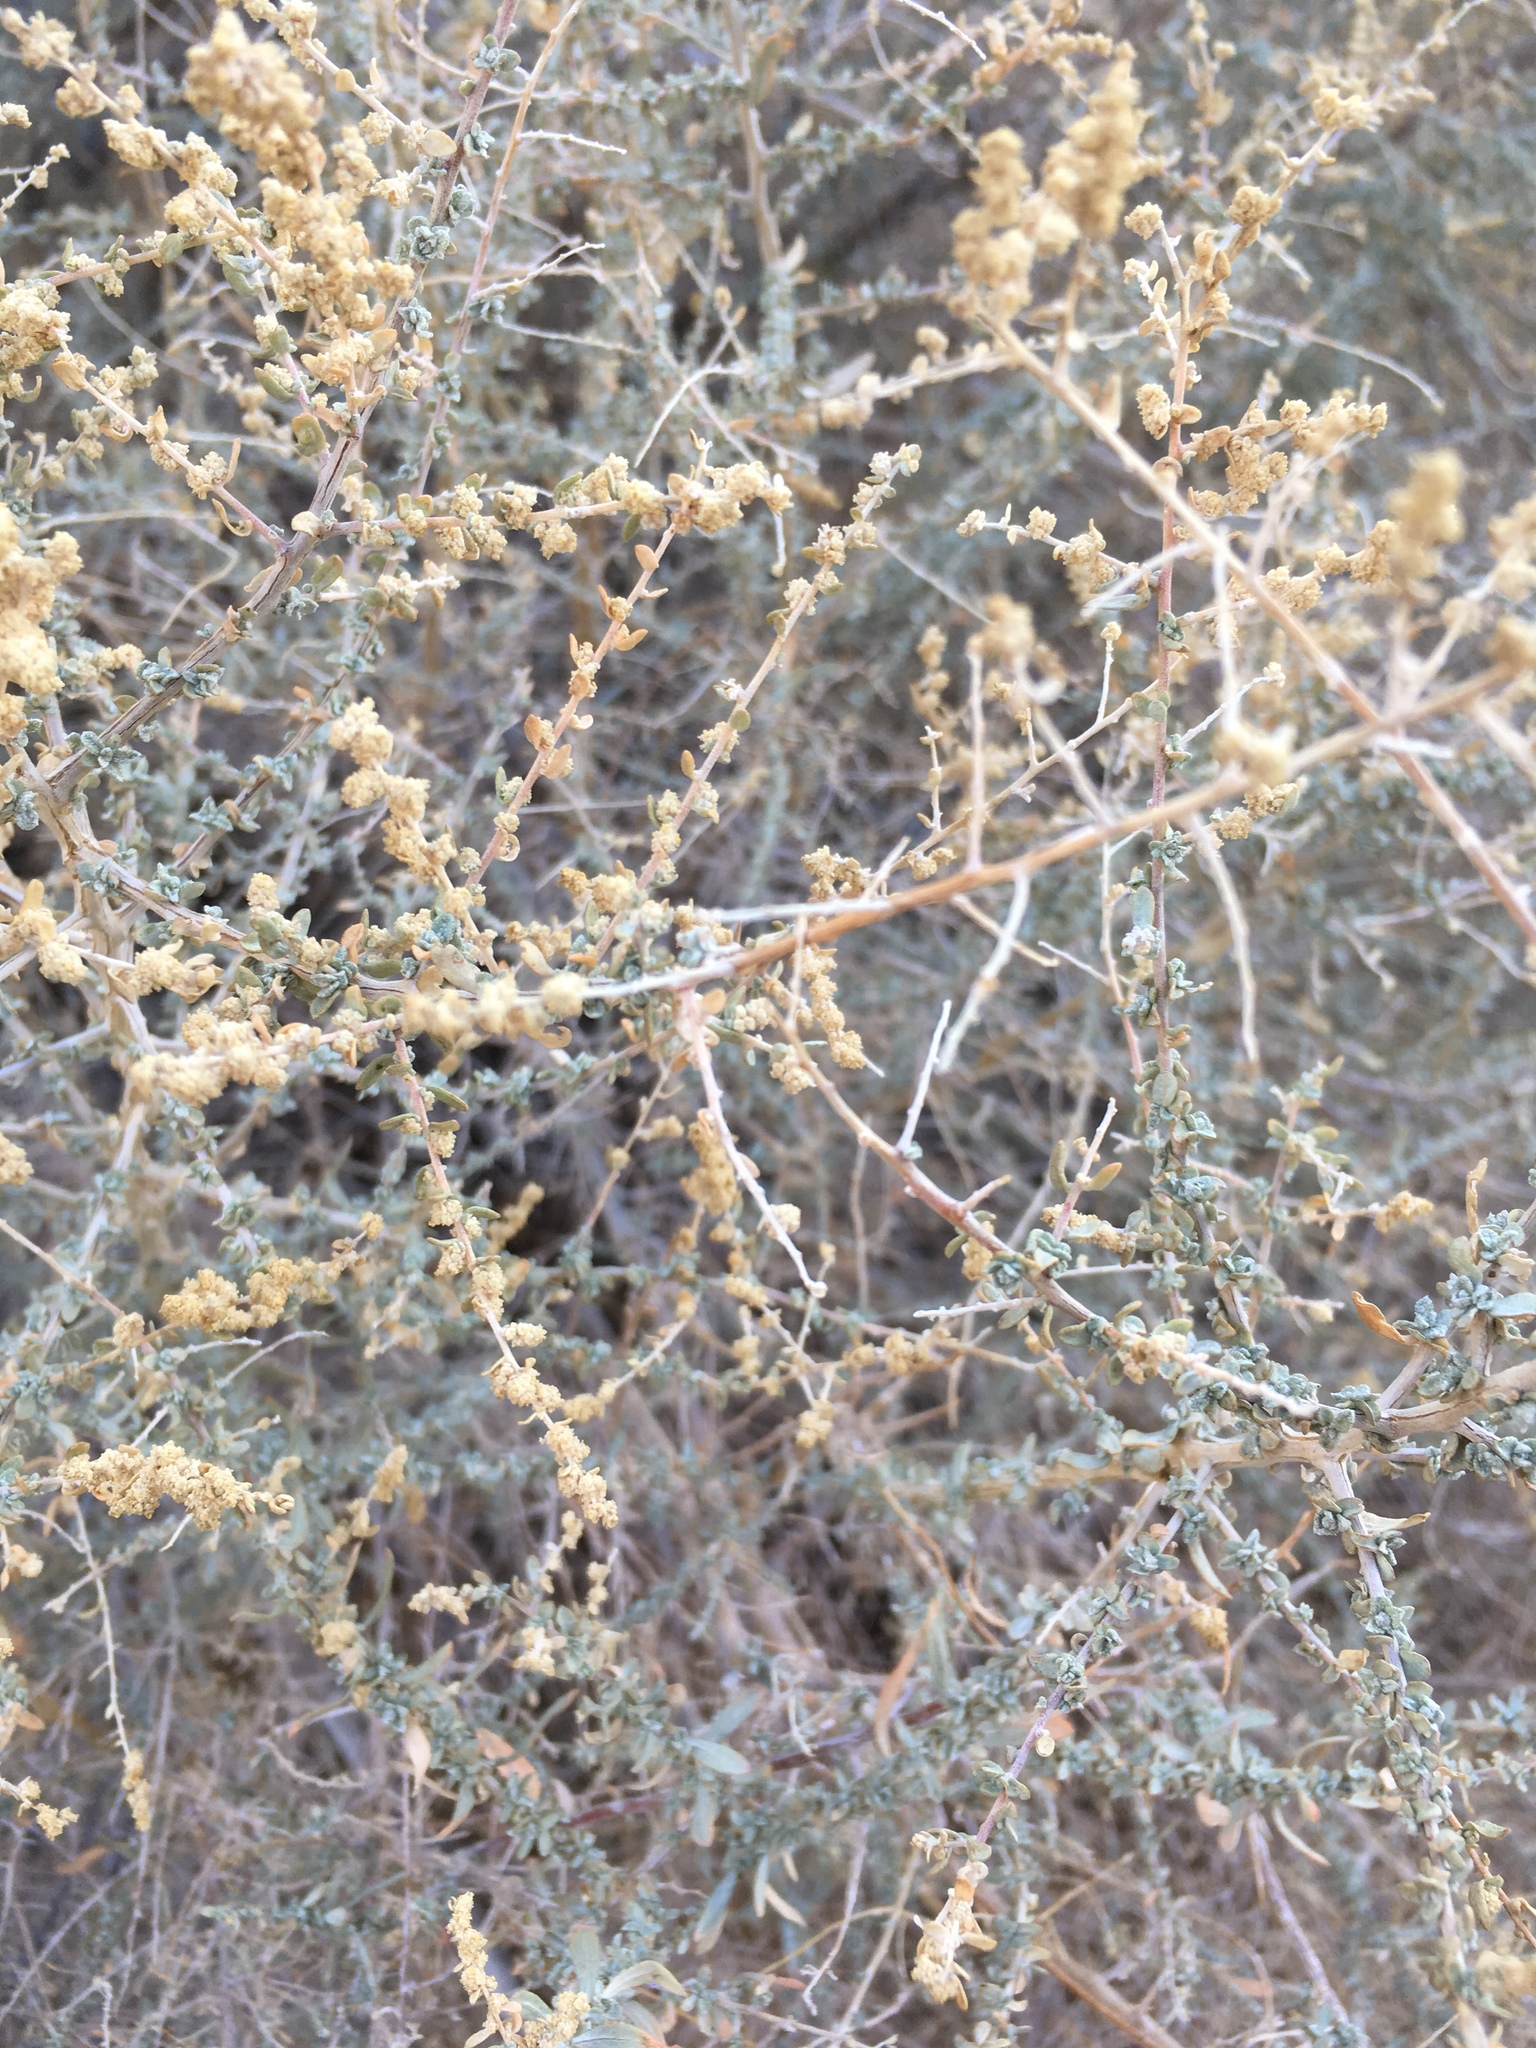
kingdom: Plantae
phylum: Tracheophyta
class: Magnoliopsida
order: Caryophyllales
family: Amaranthaceae
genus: Atriplex
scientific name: Atriplex polycarpa
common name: Desert saltbush
